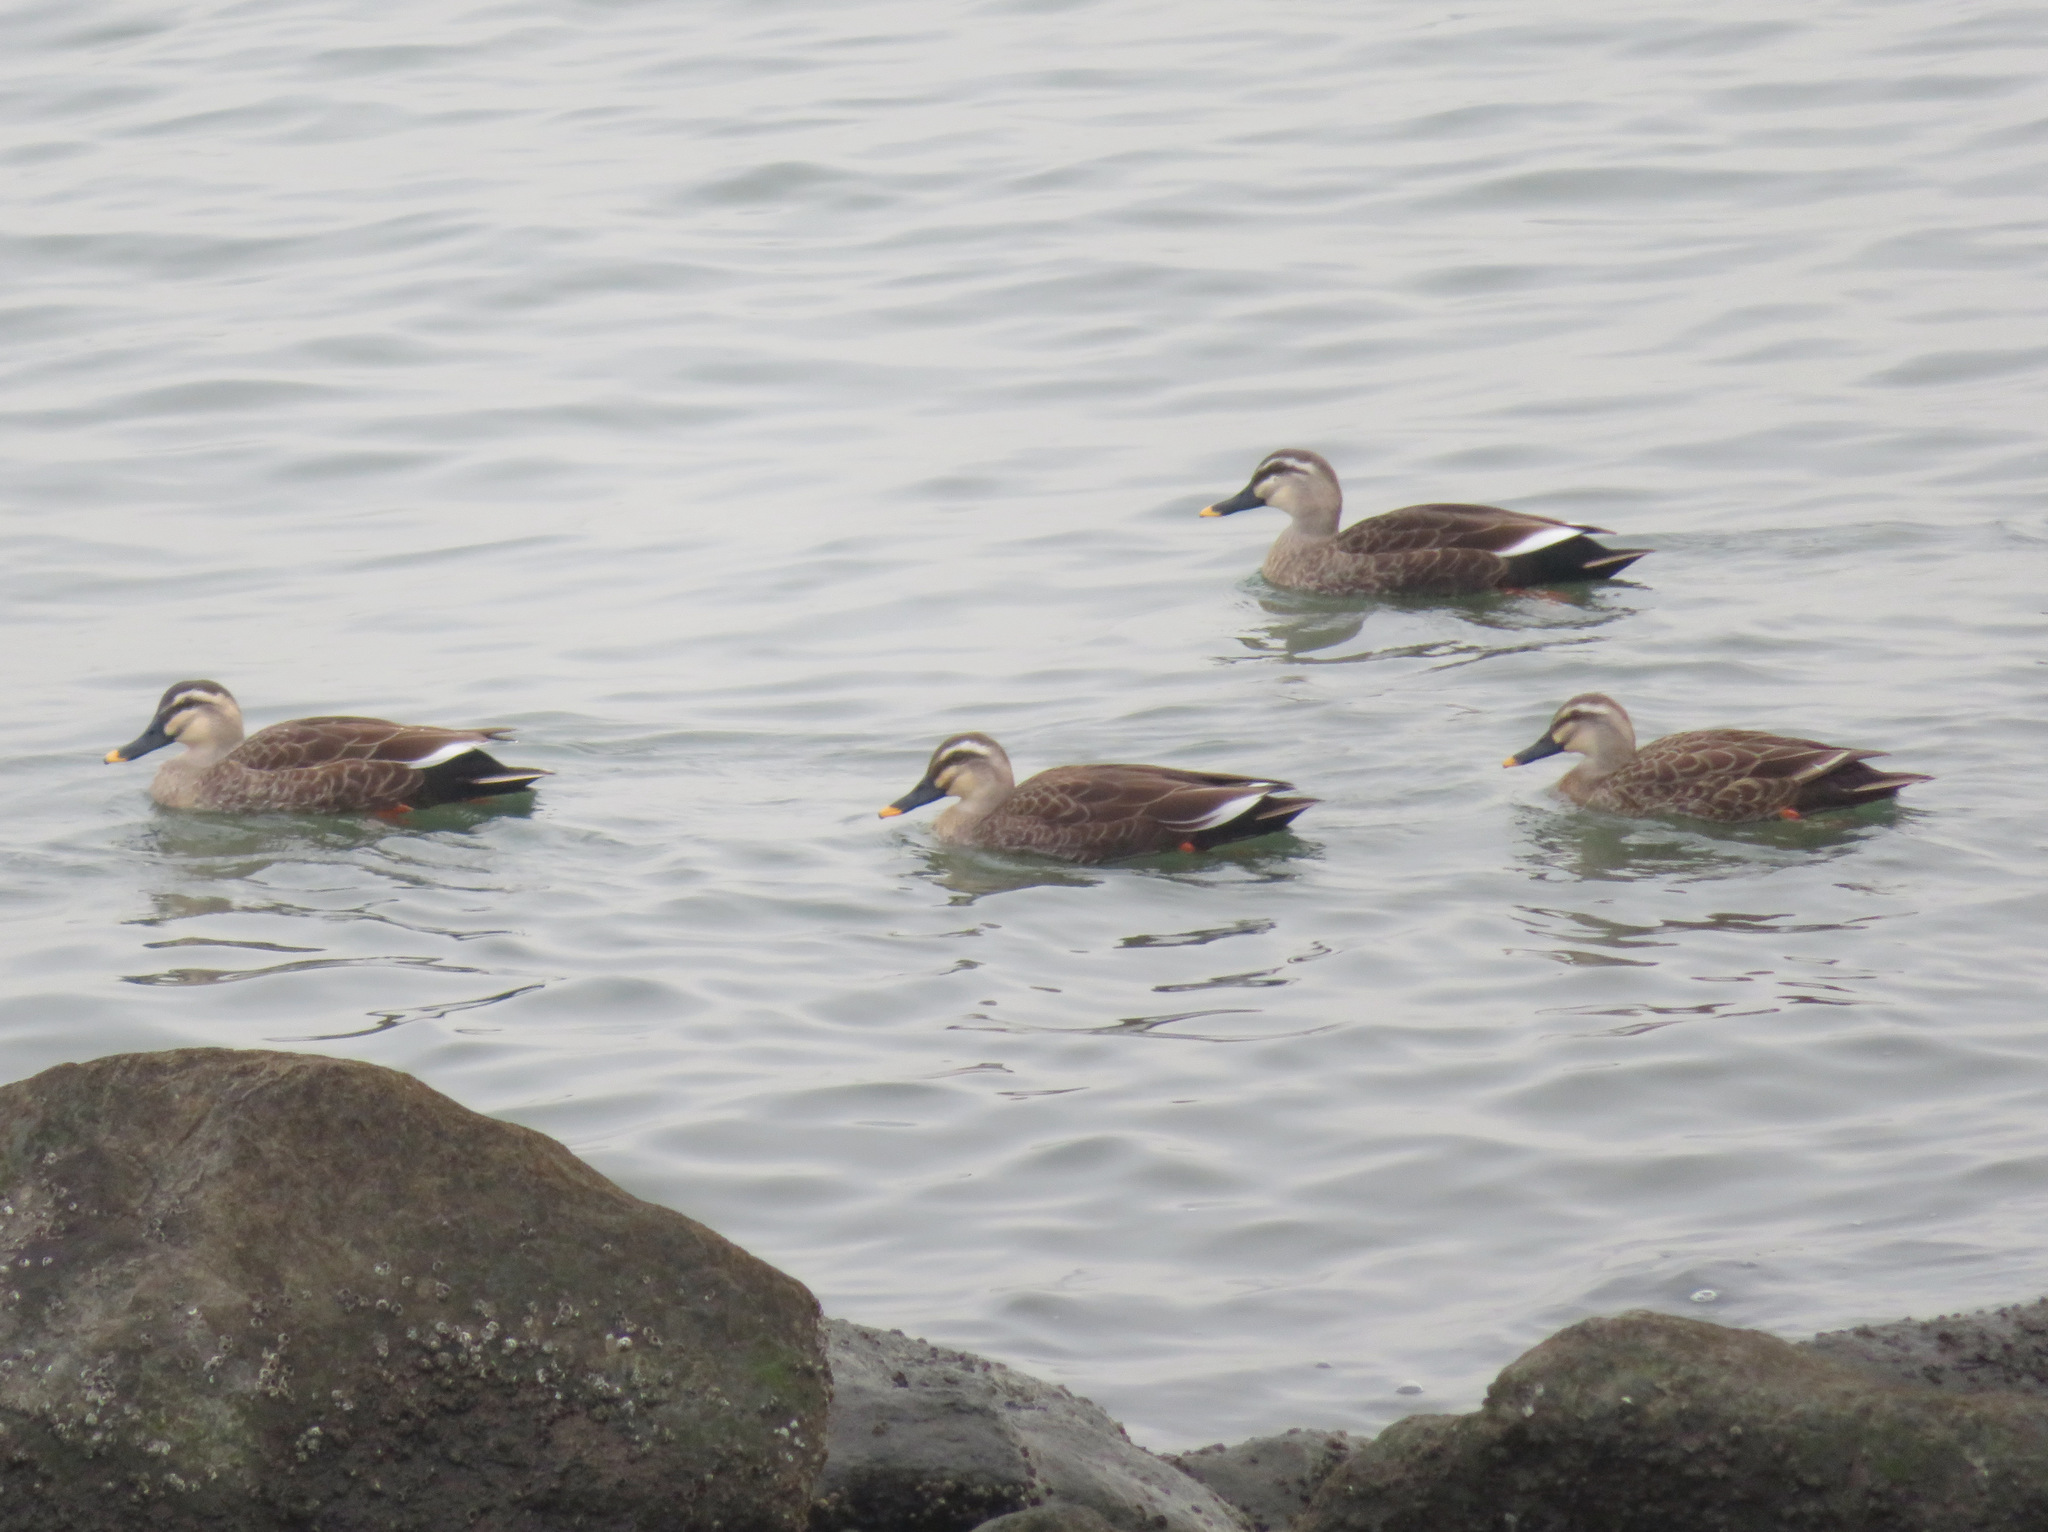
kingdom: Animalia
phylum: Chordata
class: Aves
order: Anseriformes
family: Anatidae
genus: Anas
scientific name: Anas zonorhyncha
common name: Eastern spot-billed duck
